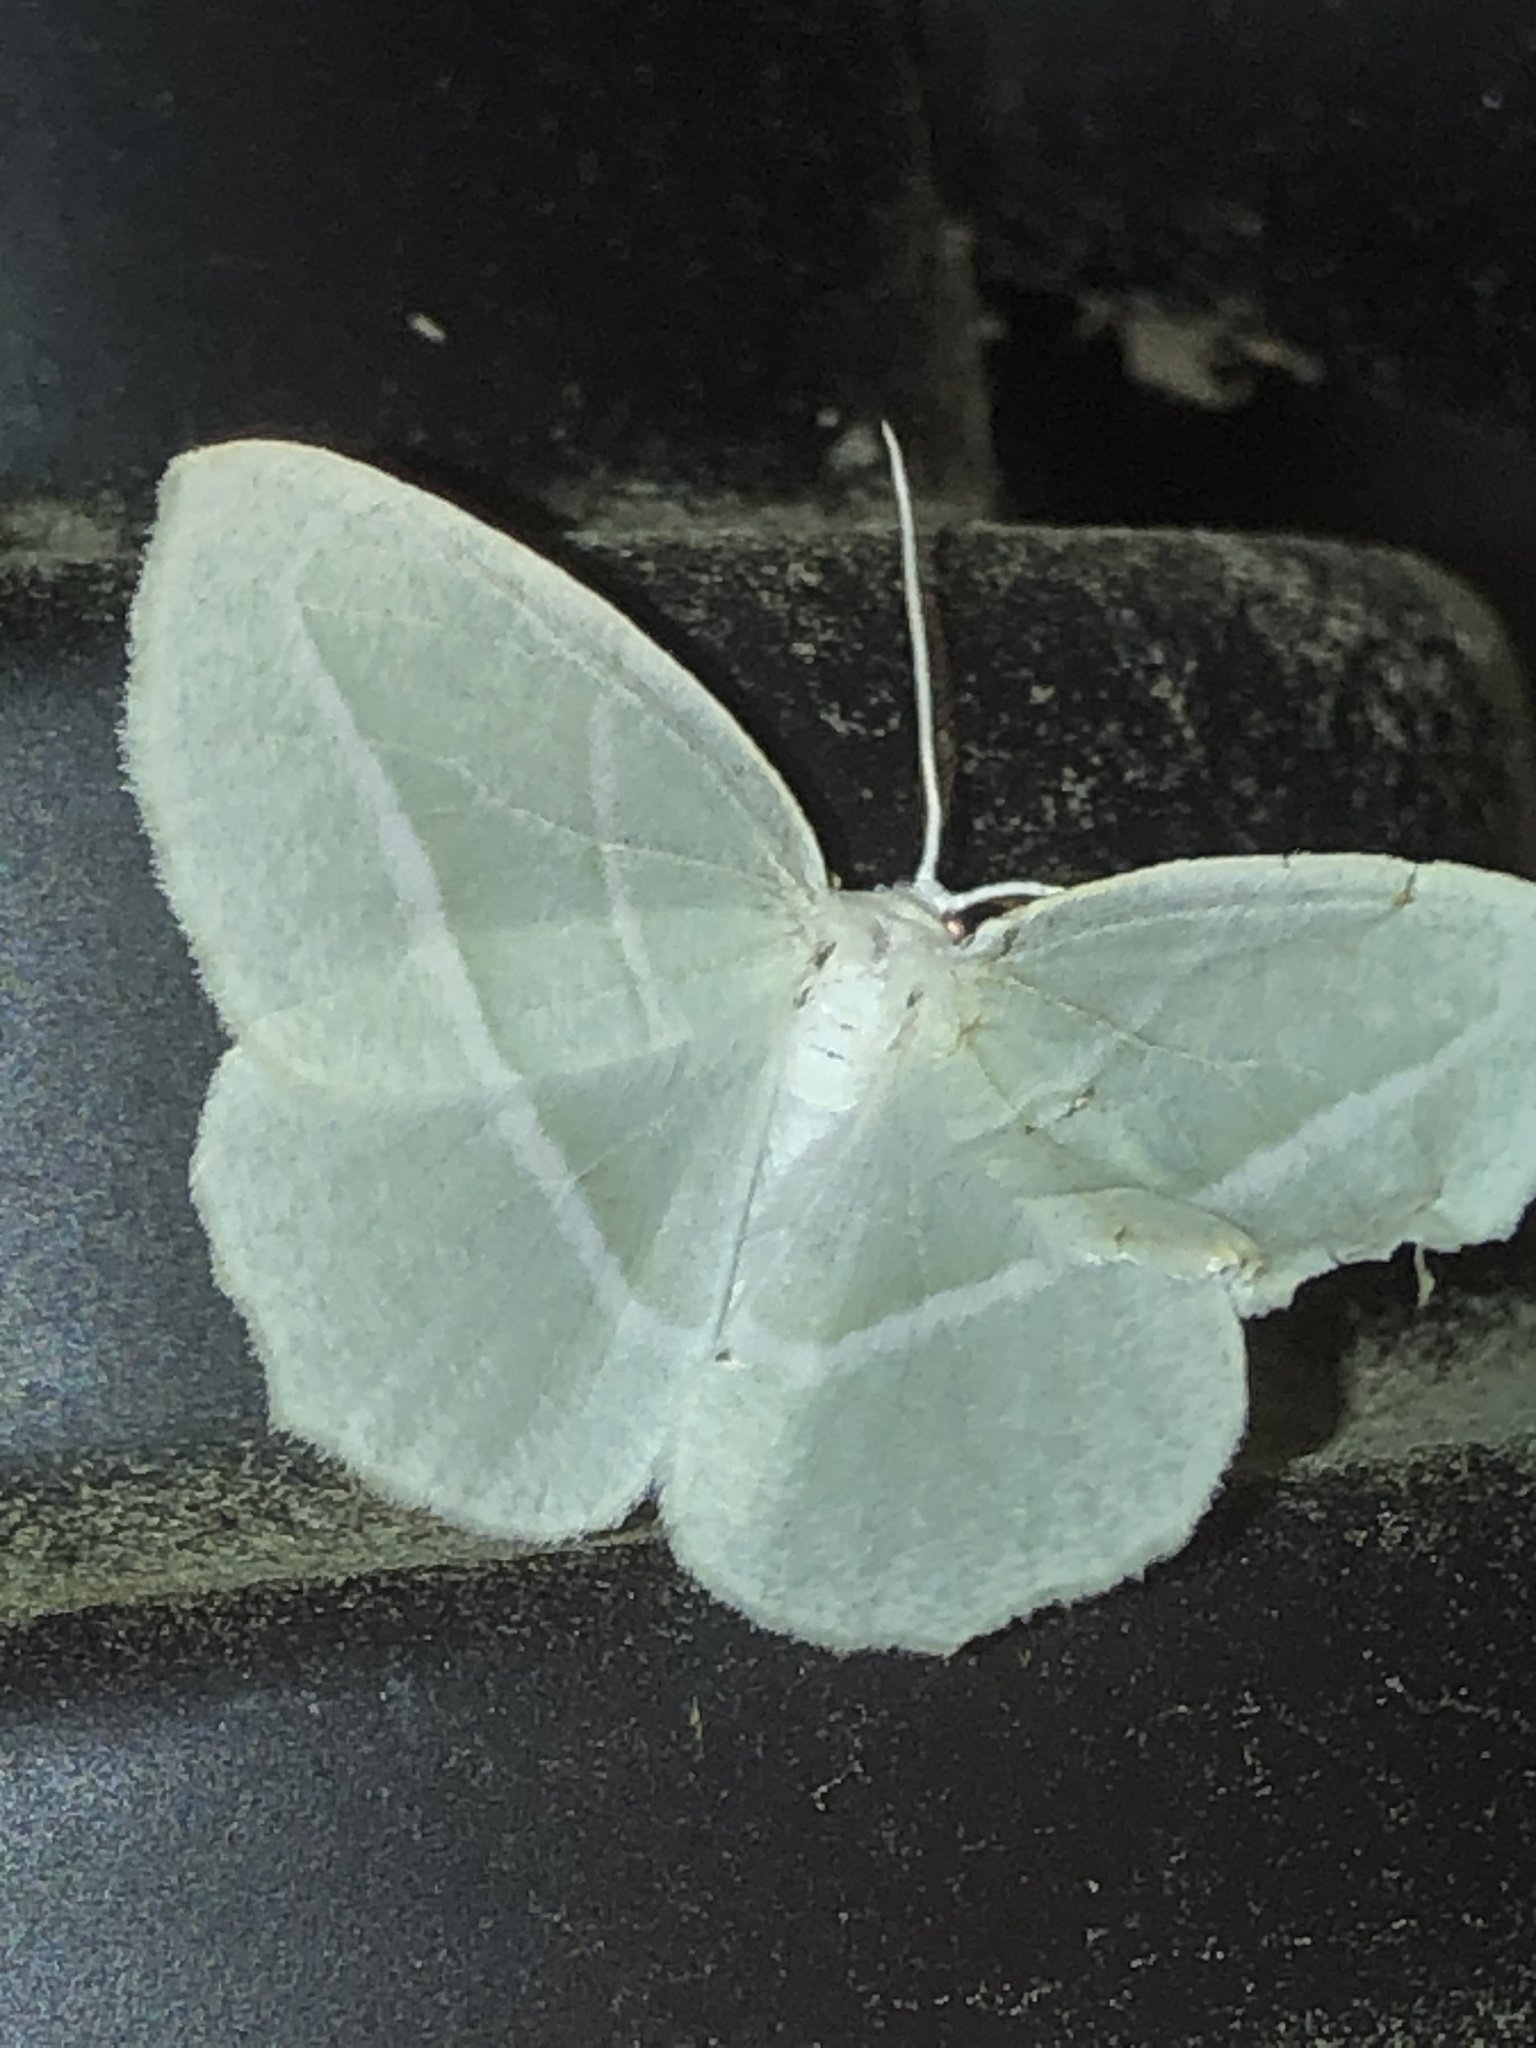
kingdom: Animalia
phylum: Arthropoda
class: Insecta
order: Lepidoptera
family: Geometridae
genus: Campaea
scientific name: Campaea perlata
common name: Fringed looper
